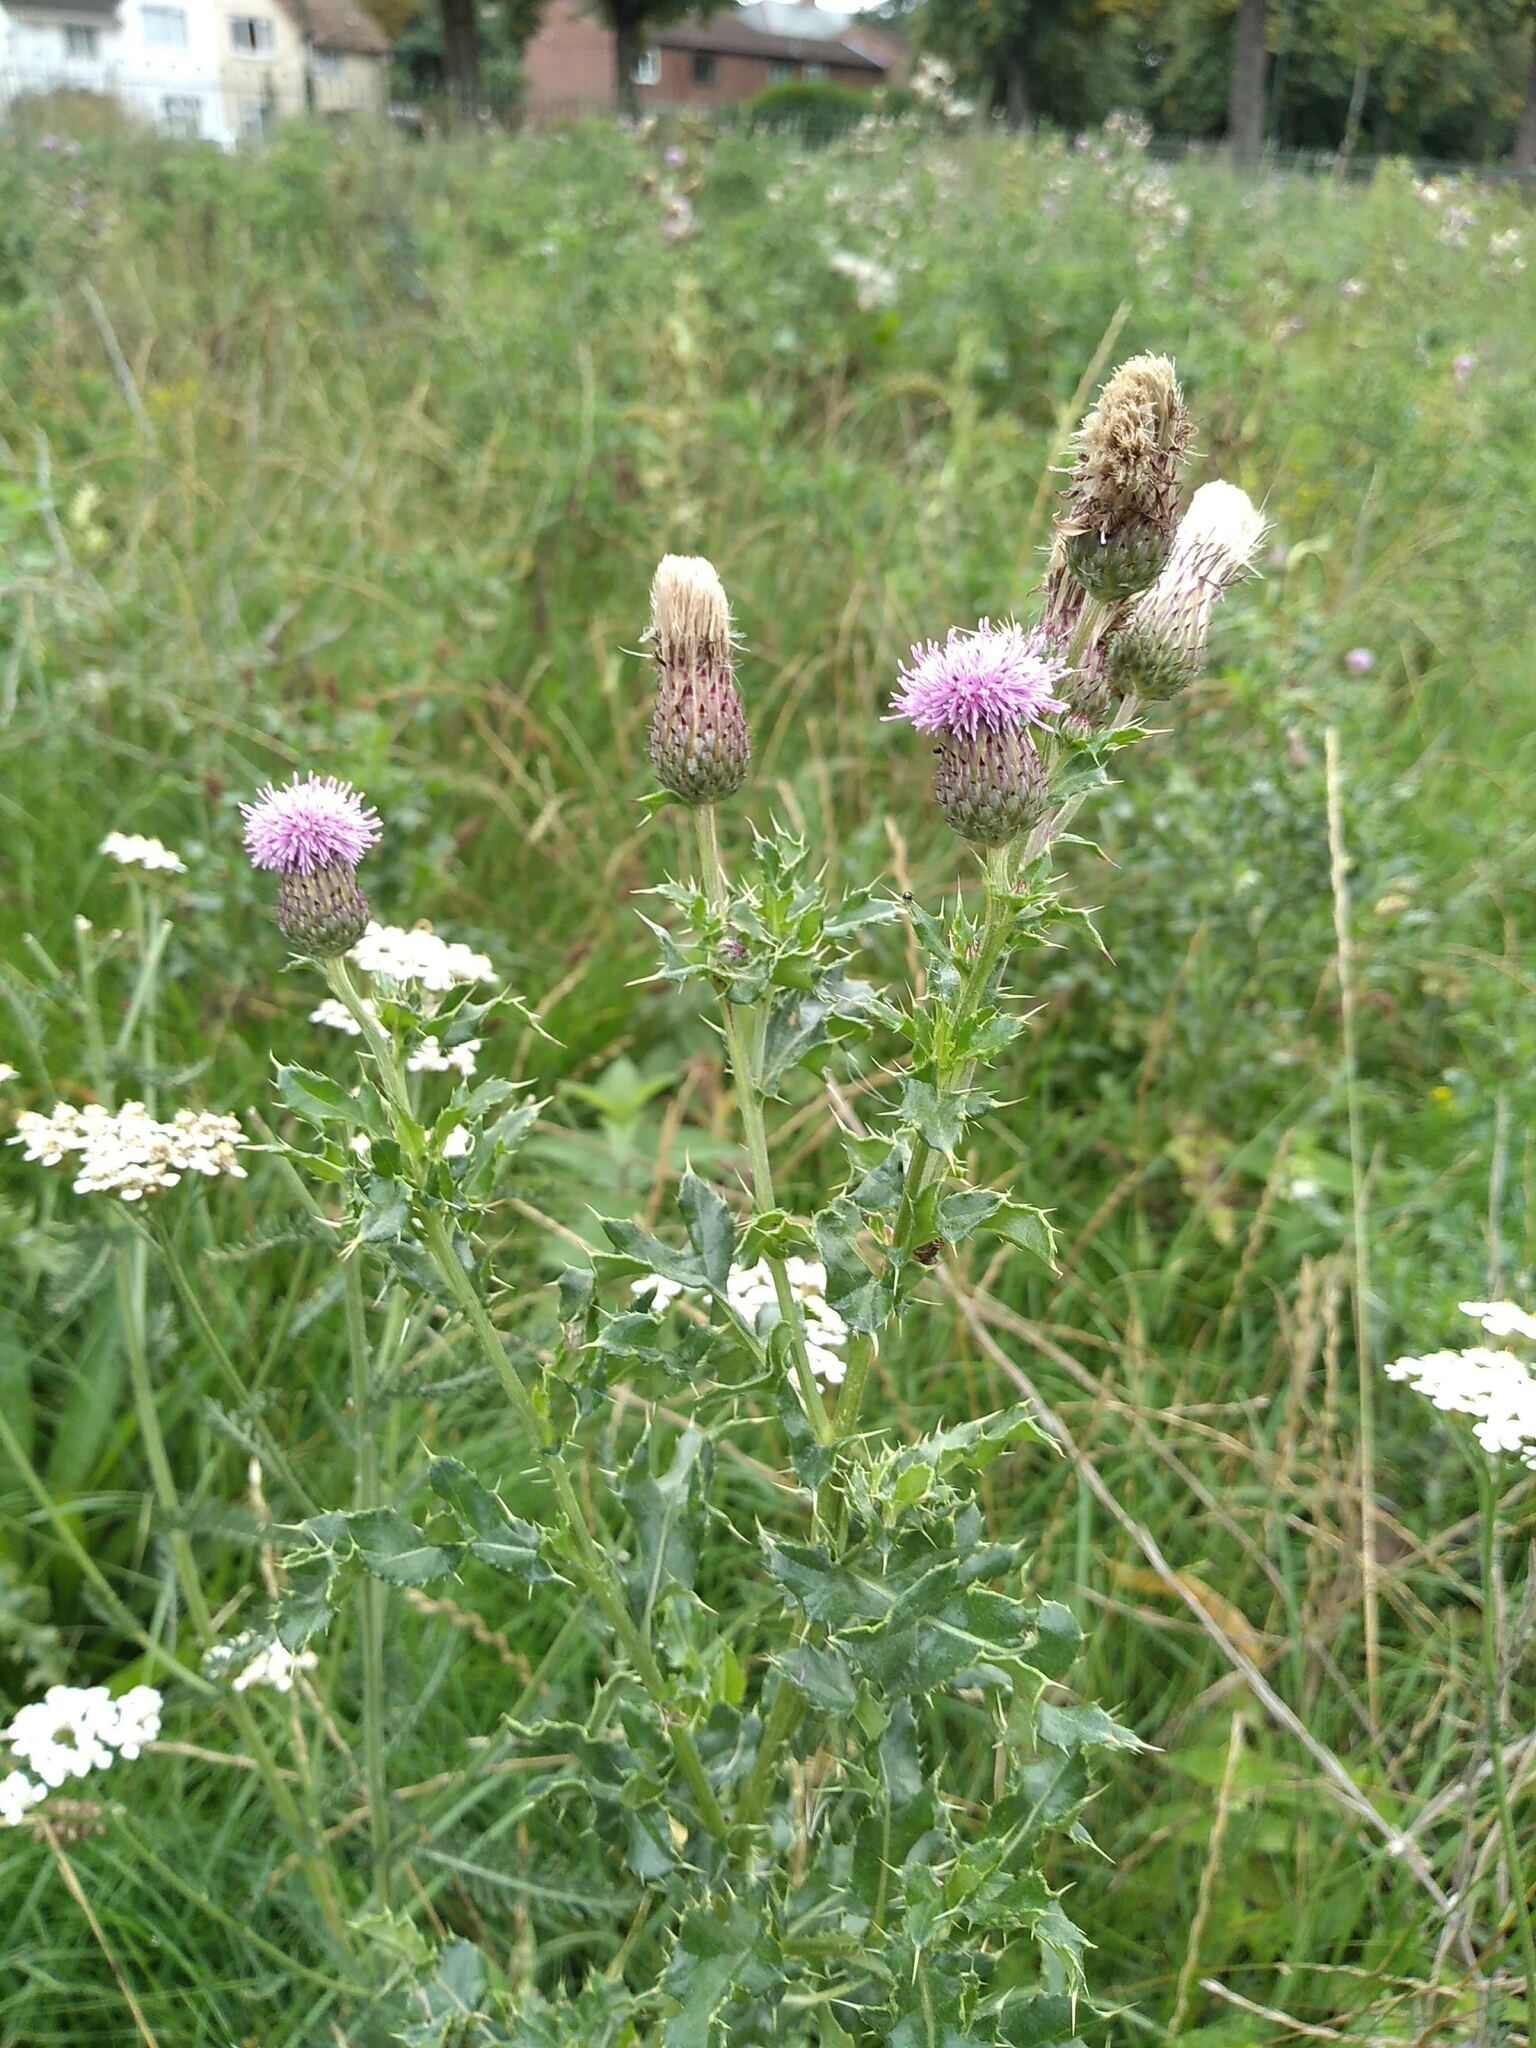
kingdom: Plantae
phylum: Tracheophyta
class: Magnoliopsida
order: Asterales
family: Asteraceae
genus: Cirsium
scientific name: Cirsium arvense
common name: Creeping thistle
